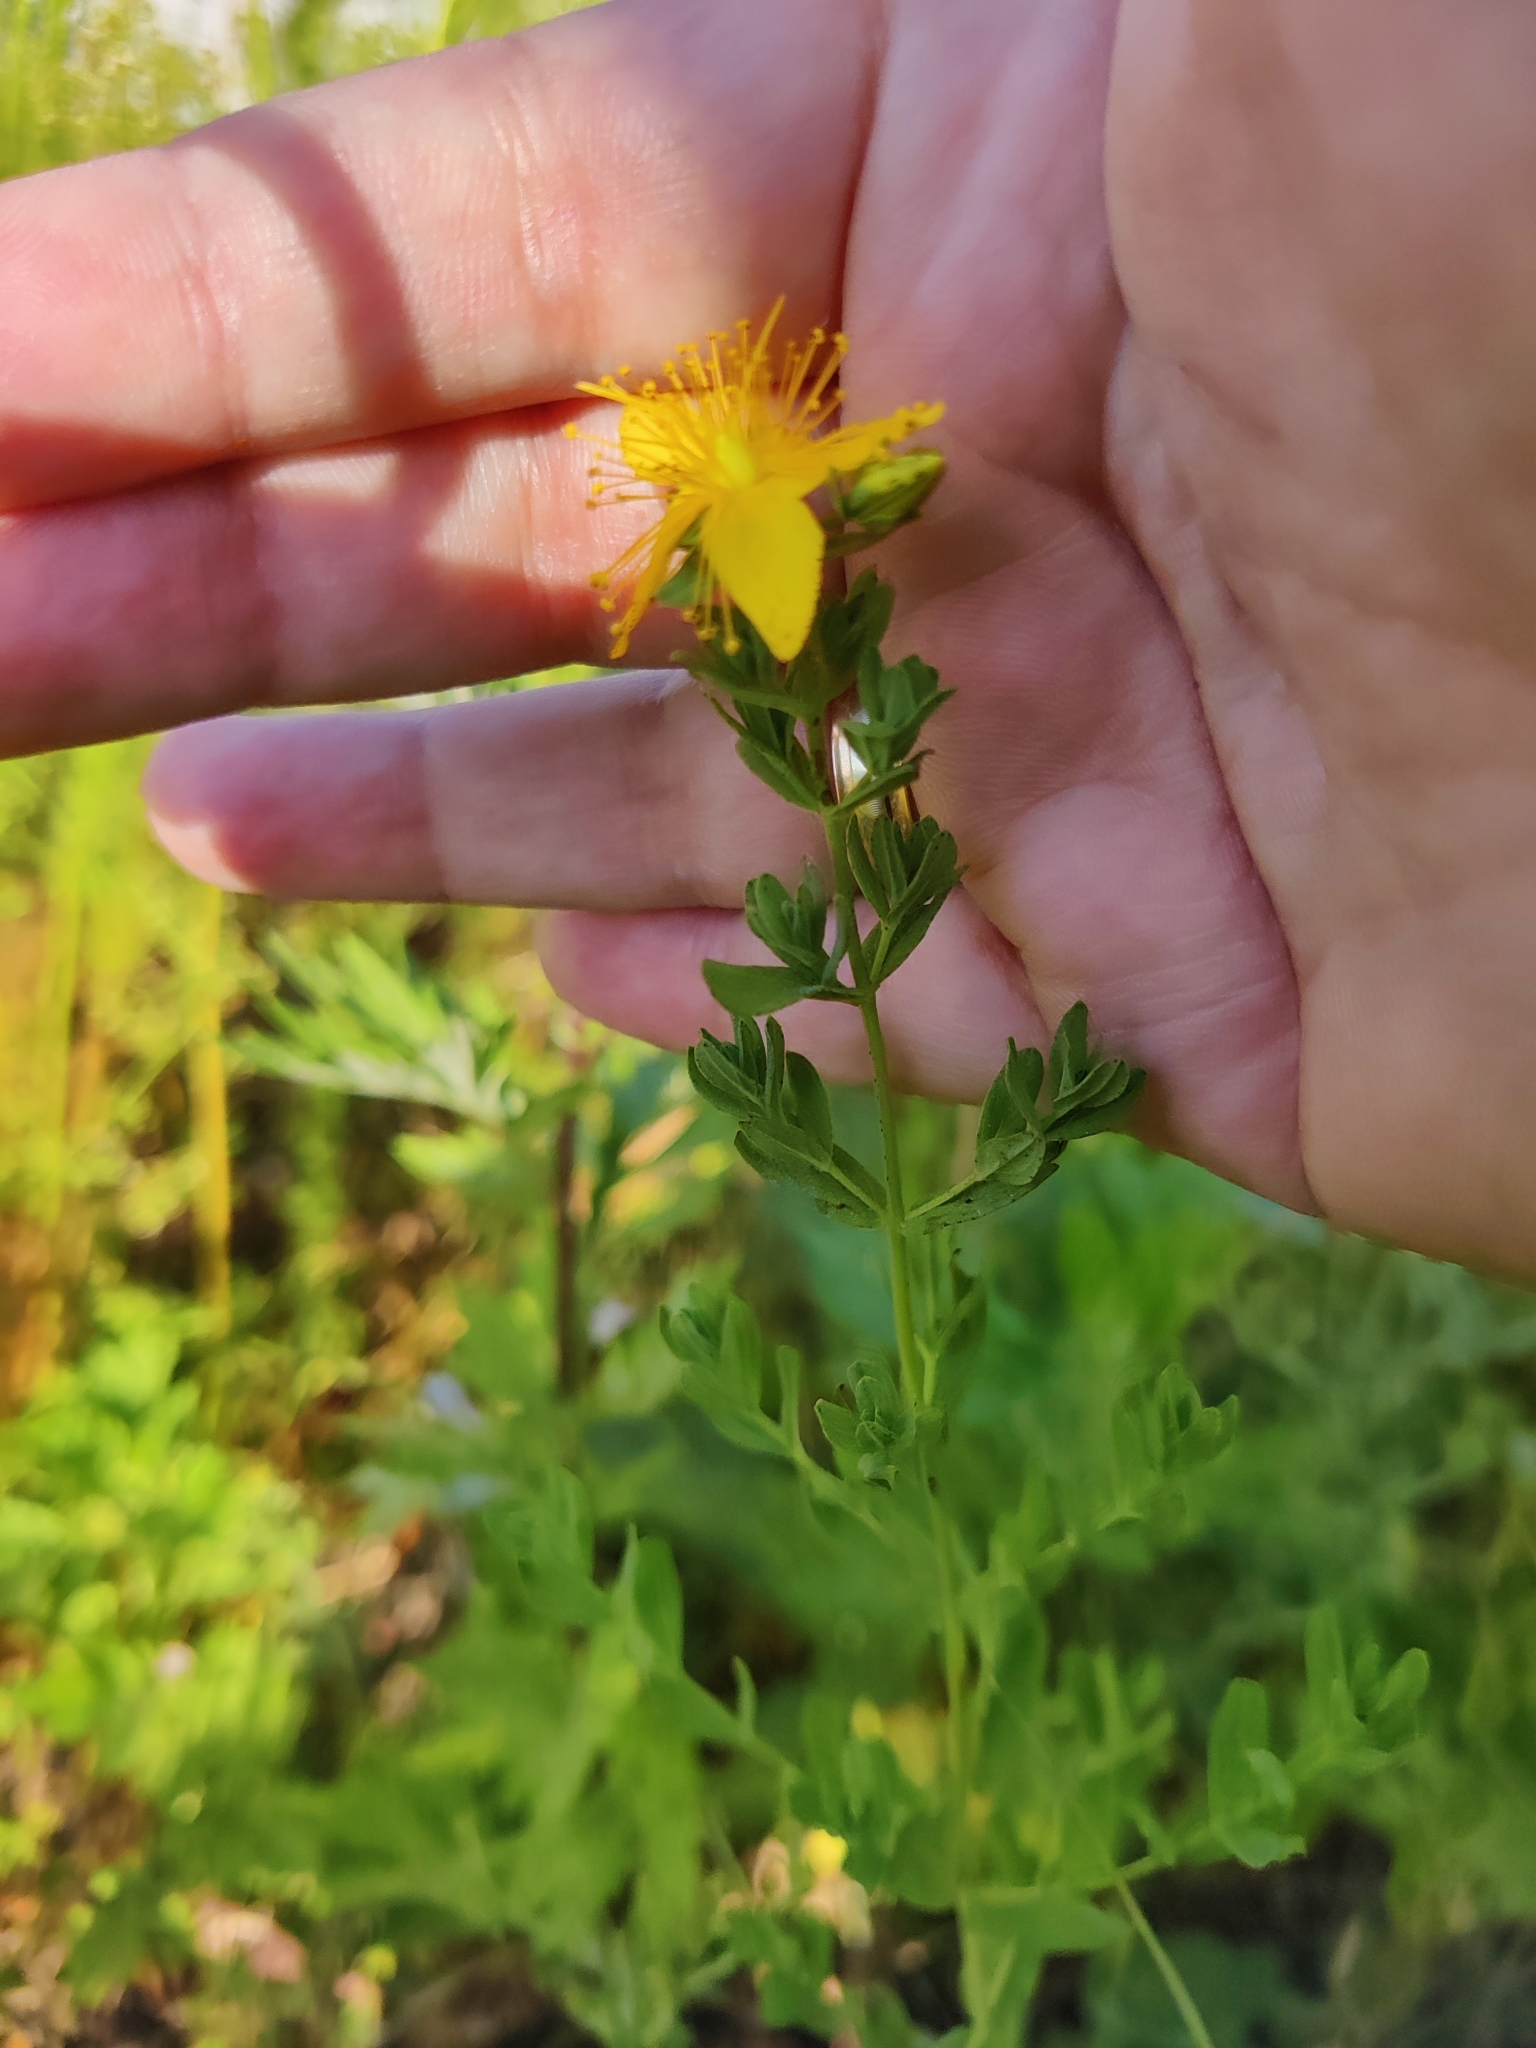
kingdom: Plantae
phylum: Tracheophyta
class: Magnoliopsida
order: Malpighiales
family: Hypericaceae
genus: Hypericum
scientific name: Hypericum perforatum
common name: Common st. johnswort
